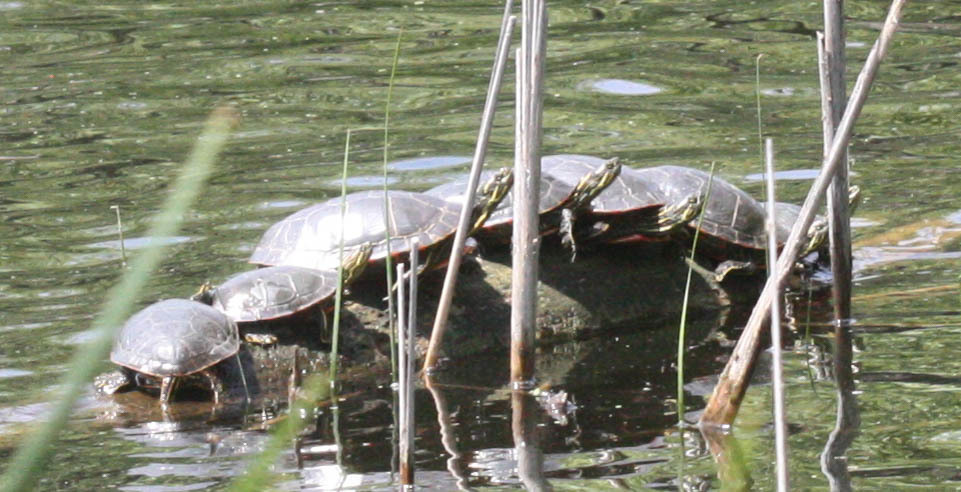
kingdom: Animalia
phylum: Chordata
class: Testudines
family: Emydidae
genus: Chrysemys
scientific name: Chrysemys picta
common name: Painted turtle
